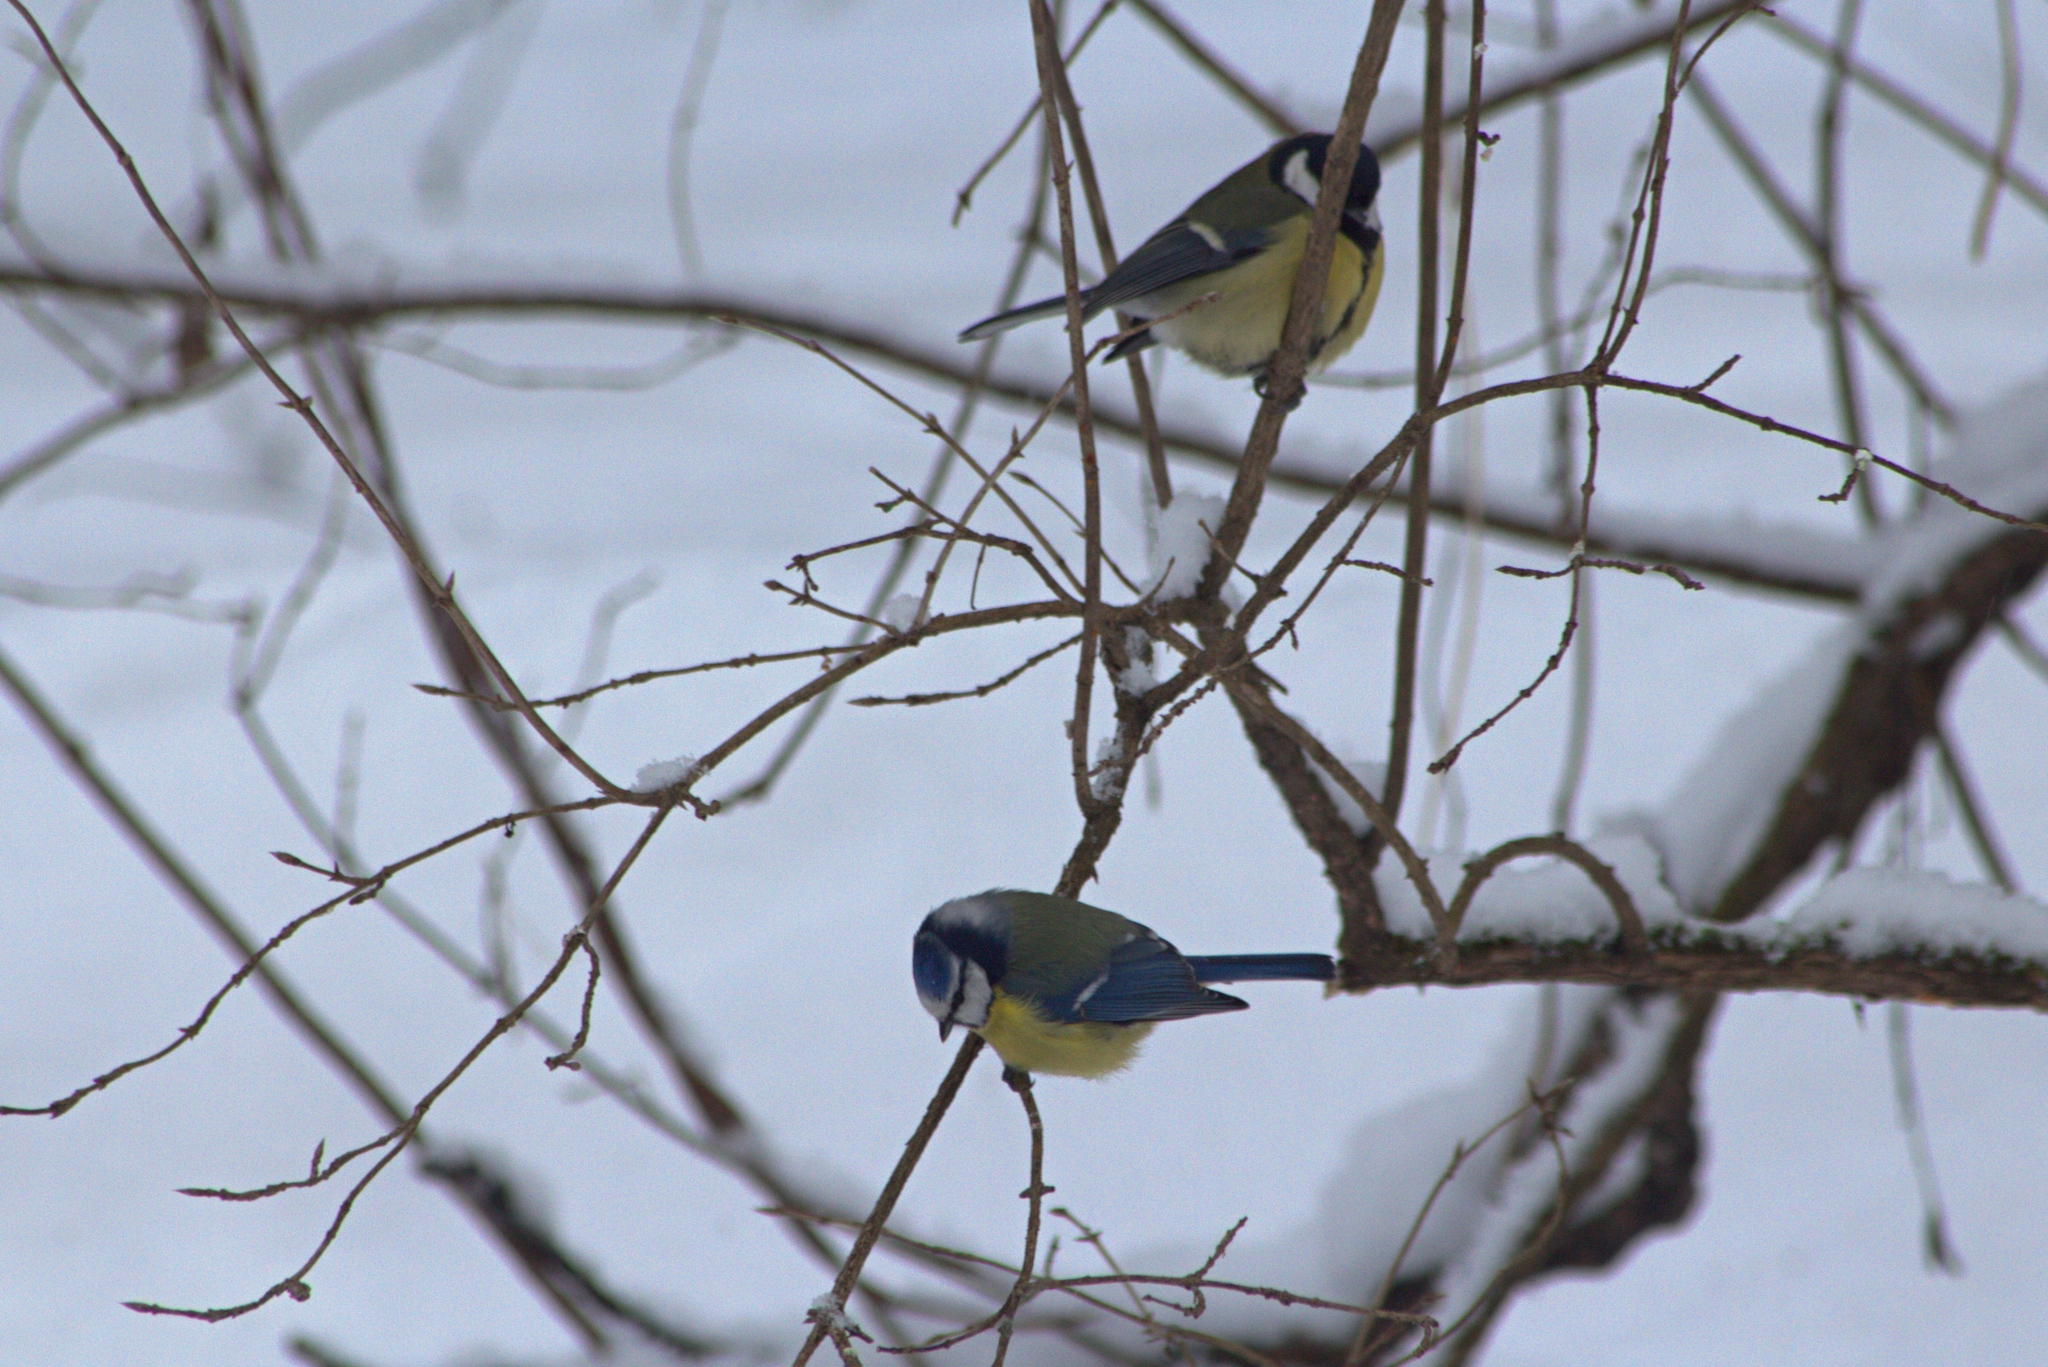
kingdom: Animalia
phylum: Chordata
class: Aves
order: Passeriformes
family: Paridae
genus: Cyanistes
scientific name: Cyanistes caeruleus
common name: Eurasian blue tit
